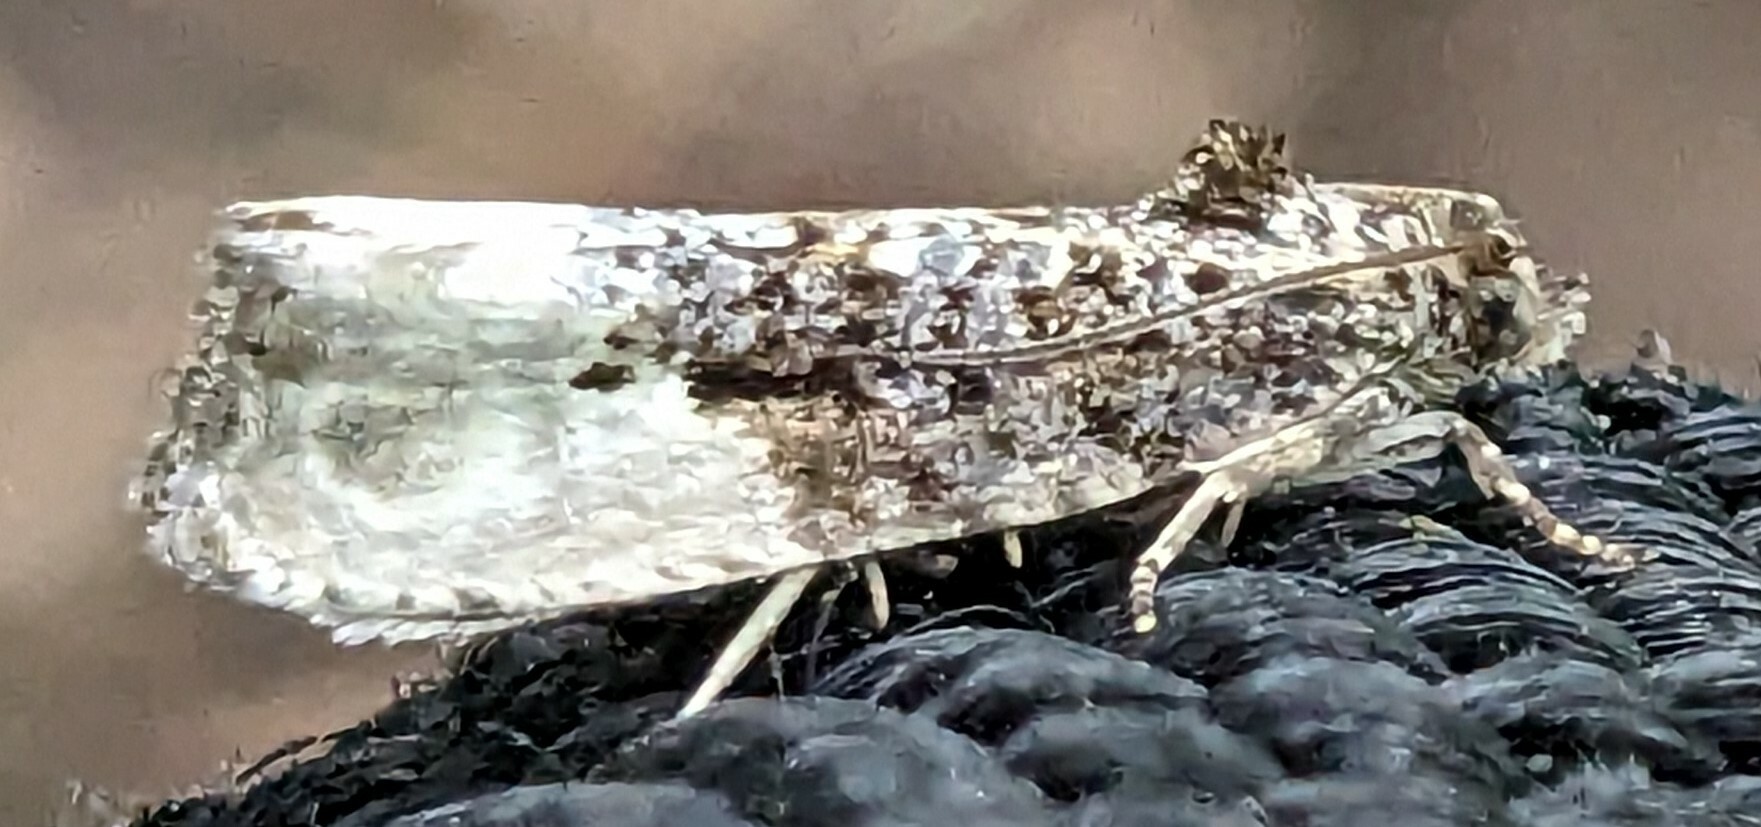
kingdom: Animalia
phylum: Arthropoda
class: Insecta
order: Lepidoptera
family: Tortricidae
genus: Hedya
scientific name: Hedya nubiferana
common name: Marbled orchard tortrix
